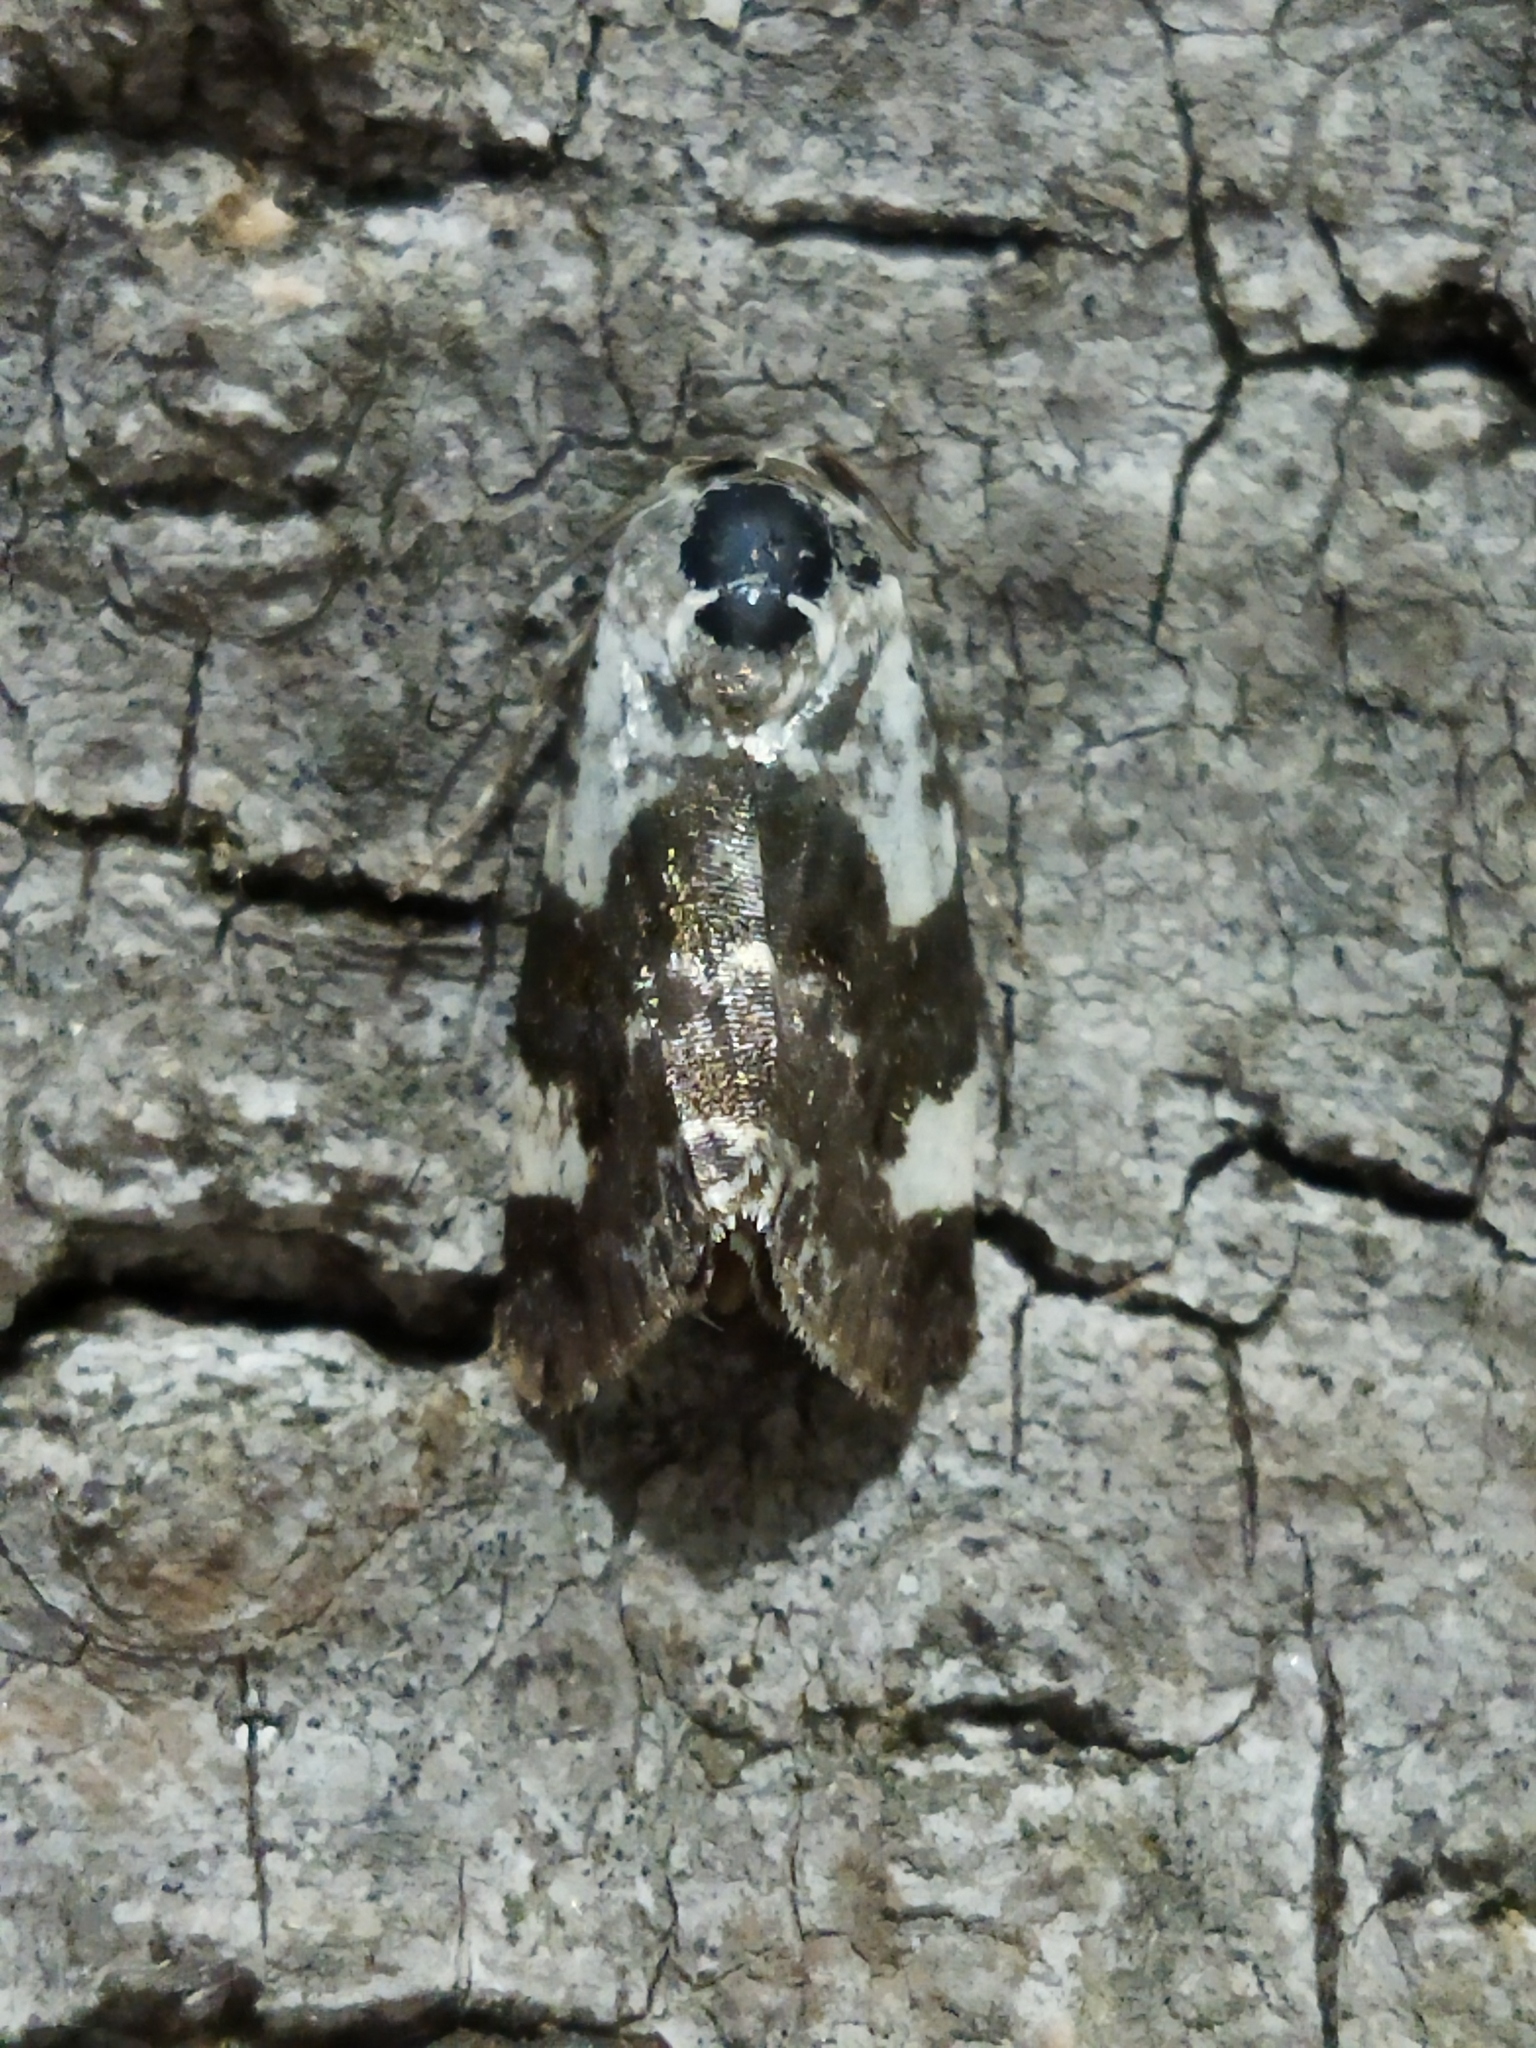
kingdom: Animalia
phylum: Arthropoda
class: Insecta
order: Lepidoptera
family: Noctuidae
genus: Acontia
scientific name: Acontia lucida
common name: Pale shoulder
